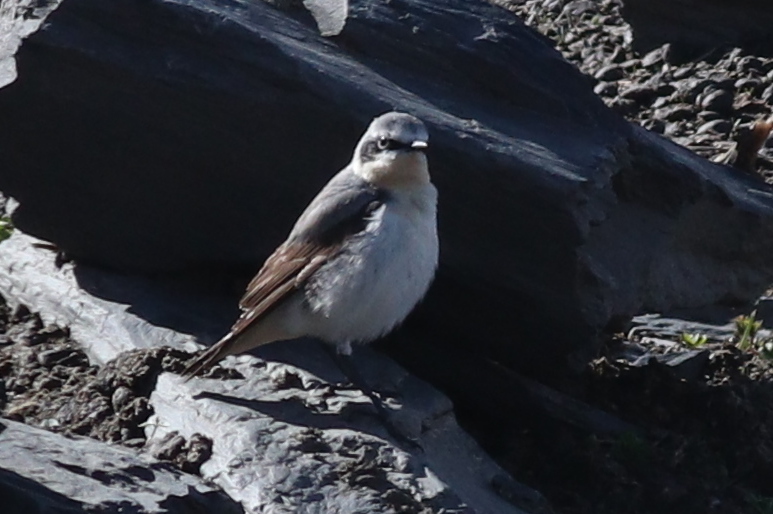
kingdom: Animalia
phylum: Chordata
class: Aves
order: Passeriformes
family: Muscicapidae
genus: Oenanthe
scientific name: Oenanthe oenanthe
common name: Northern wheatear
